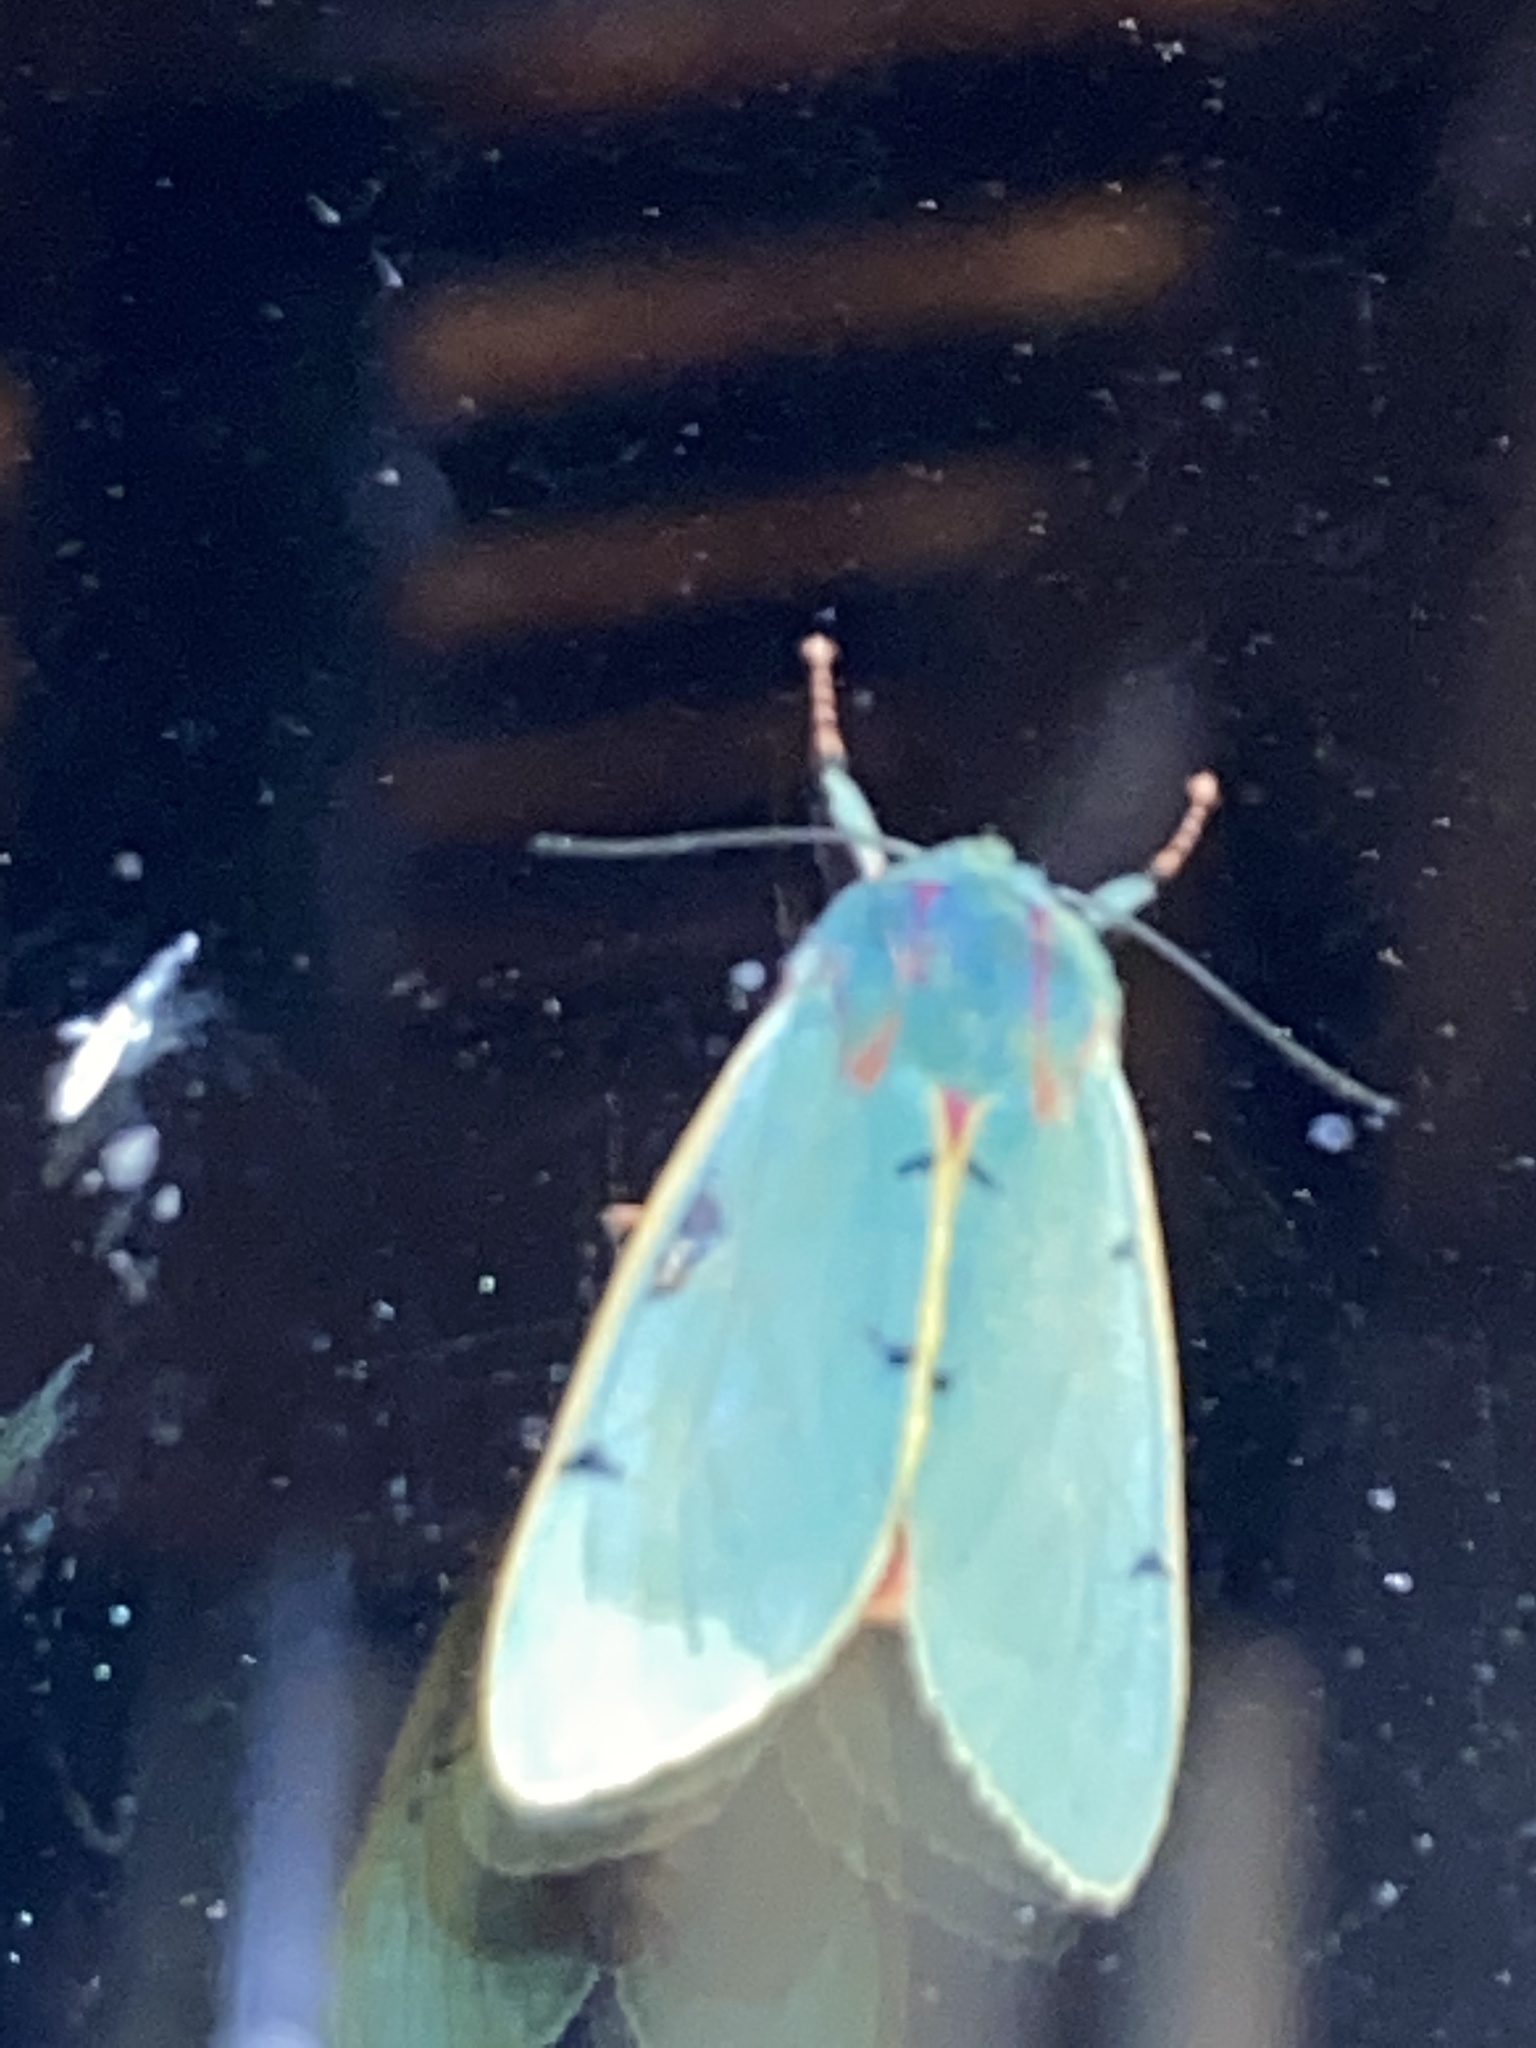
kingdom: Animalia
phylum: Arthropoda
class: Insecta
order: Lepidoptera
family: Erebidae
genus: Chlorhoda
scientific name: Chlorhoda tricolor
